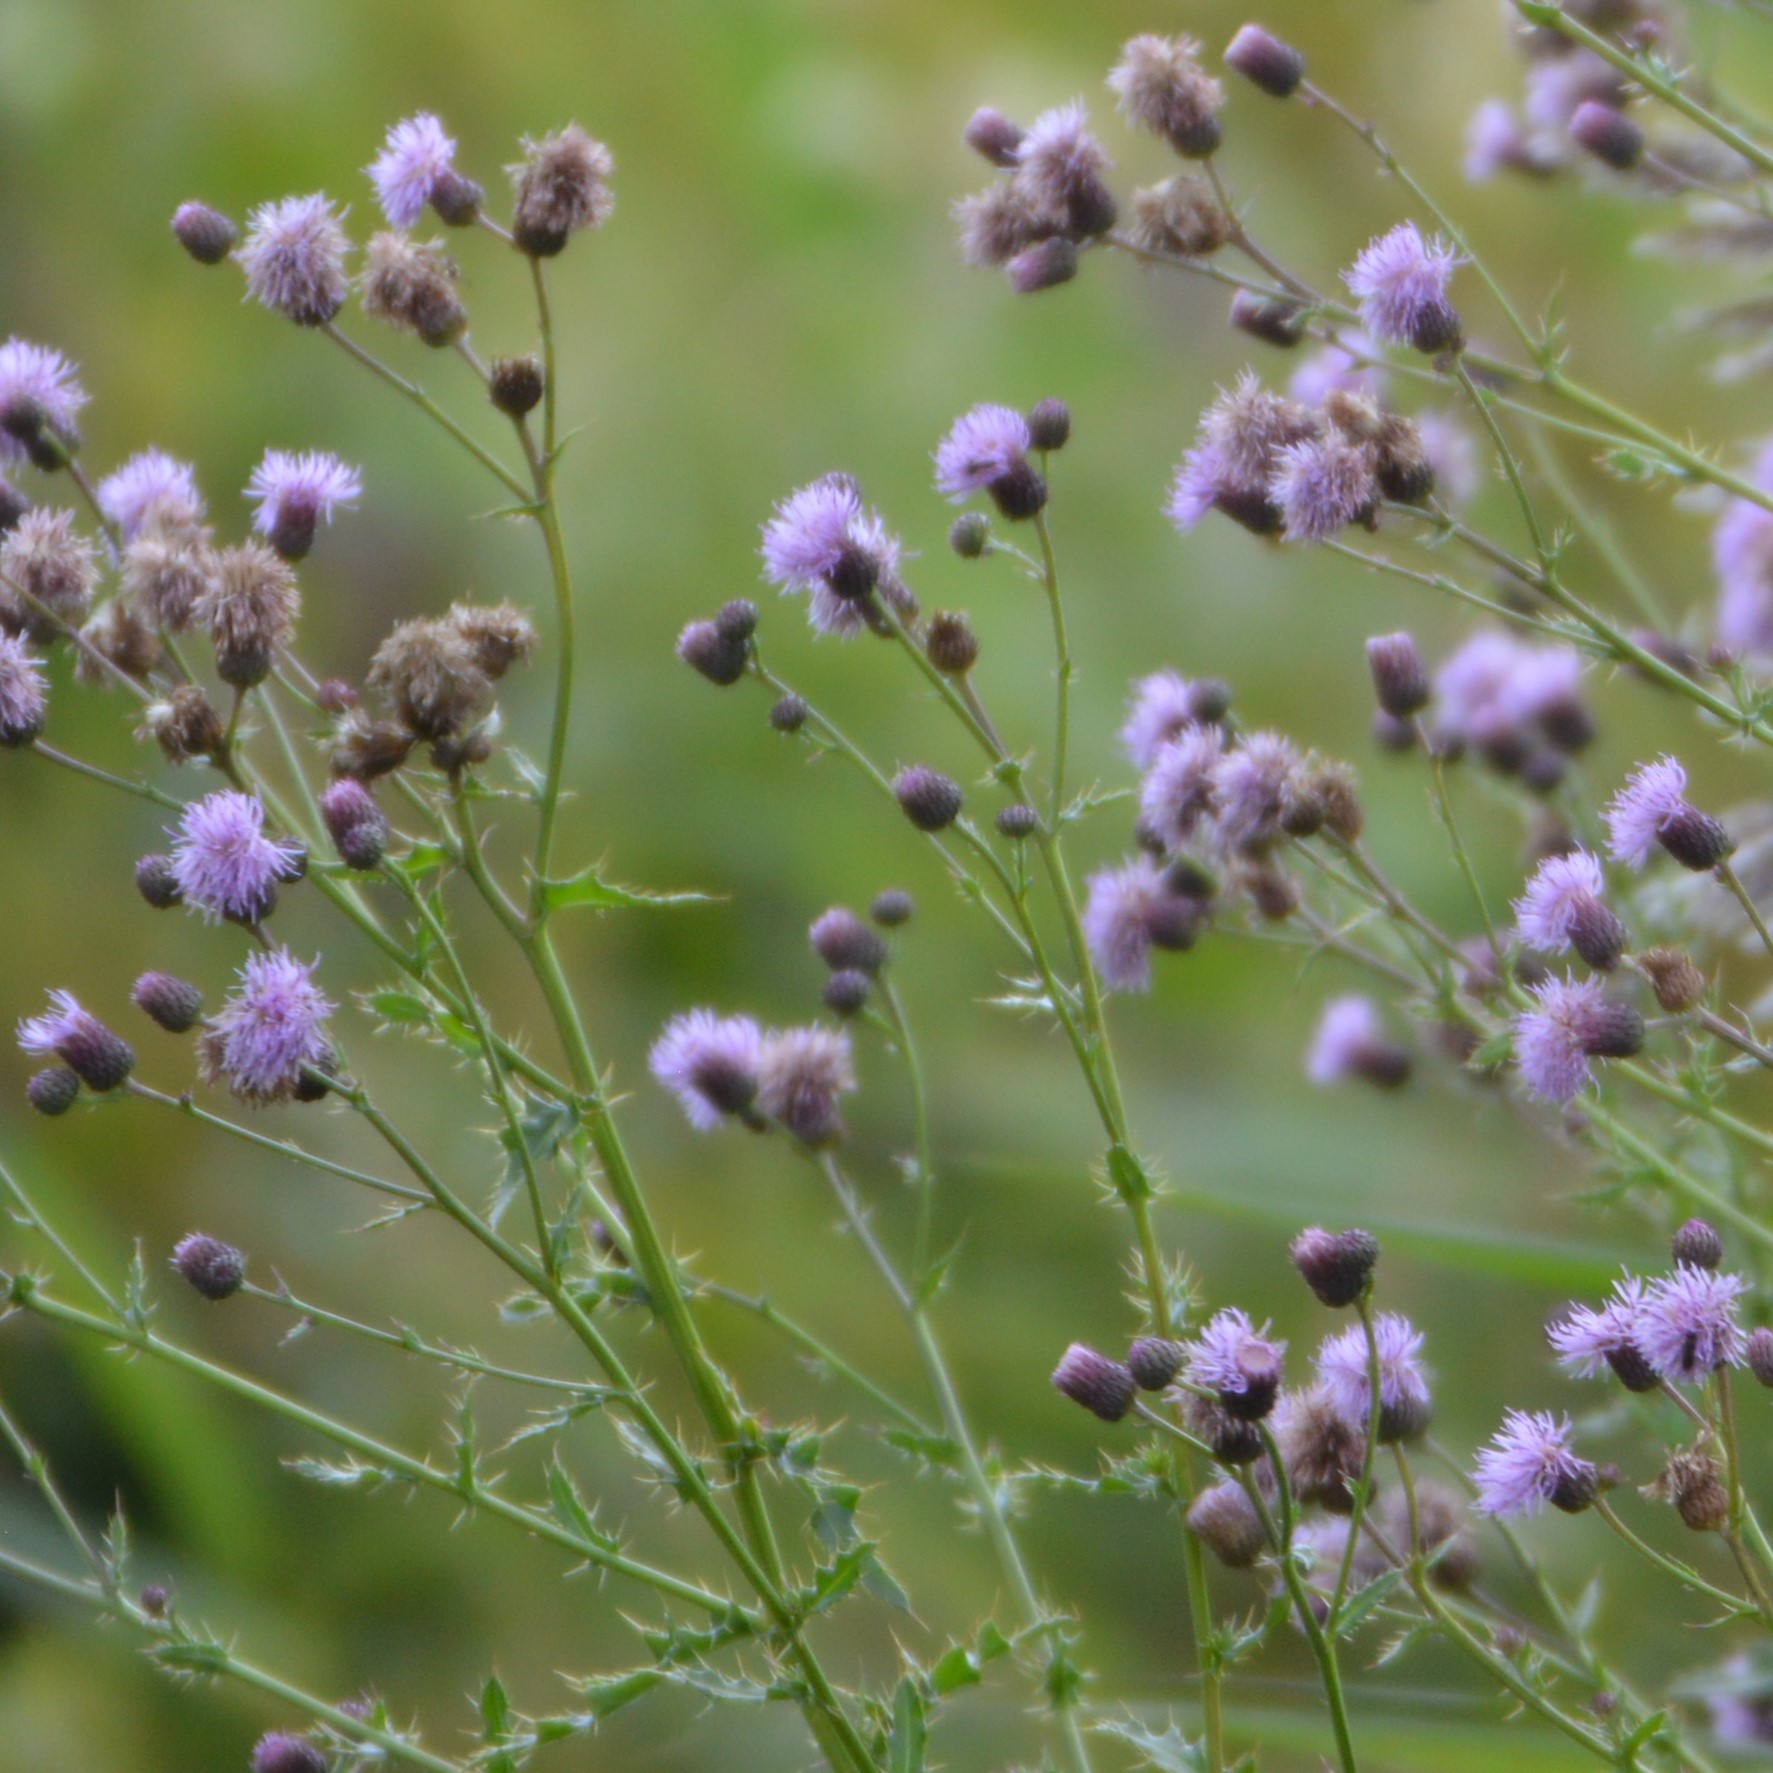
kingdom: Plantae
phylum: Tracheophyta
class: Magnoliopsida
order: Asterales
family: Asteraceae
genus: Cirsium
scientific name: Cirsium arvense
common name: Creeping thistle
